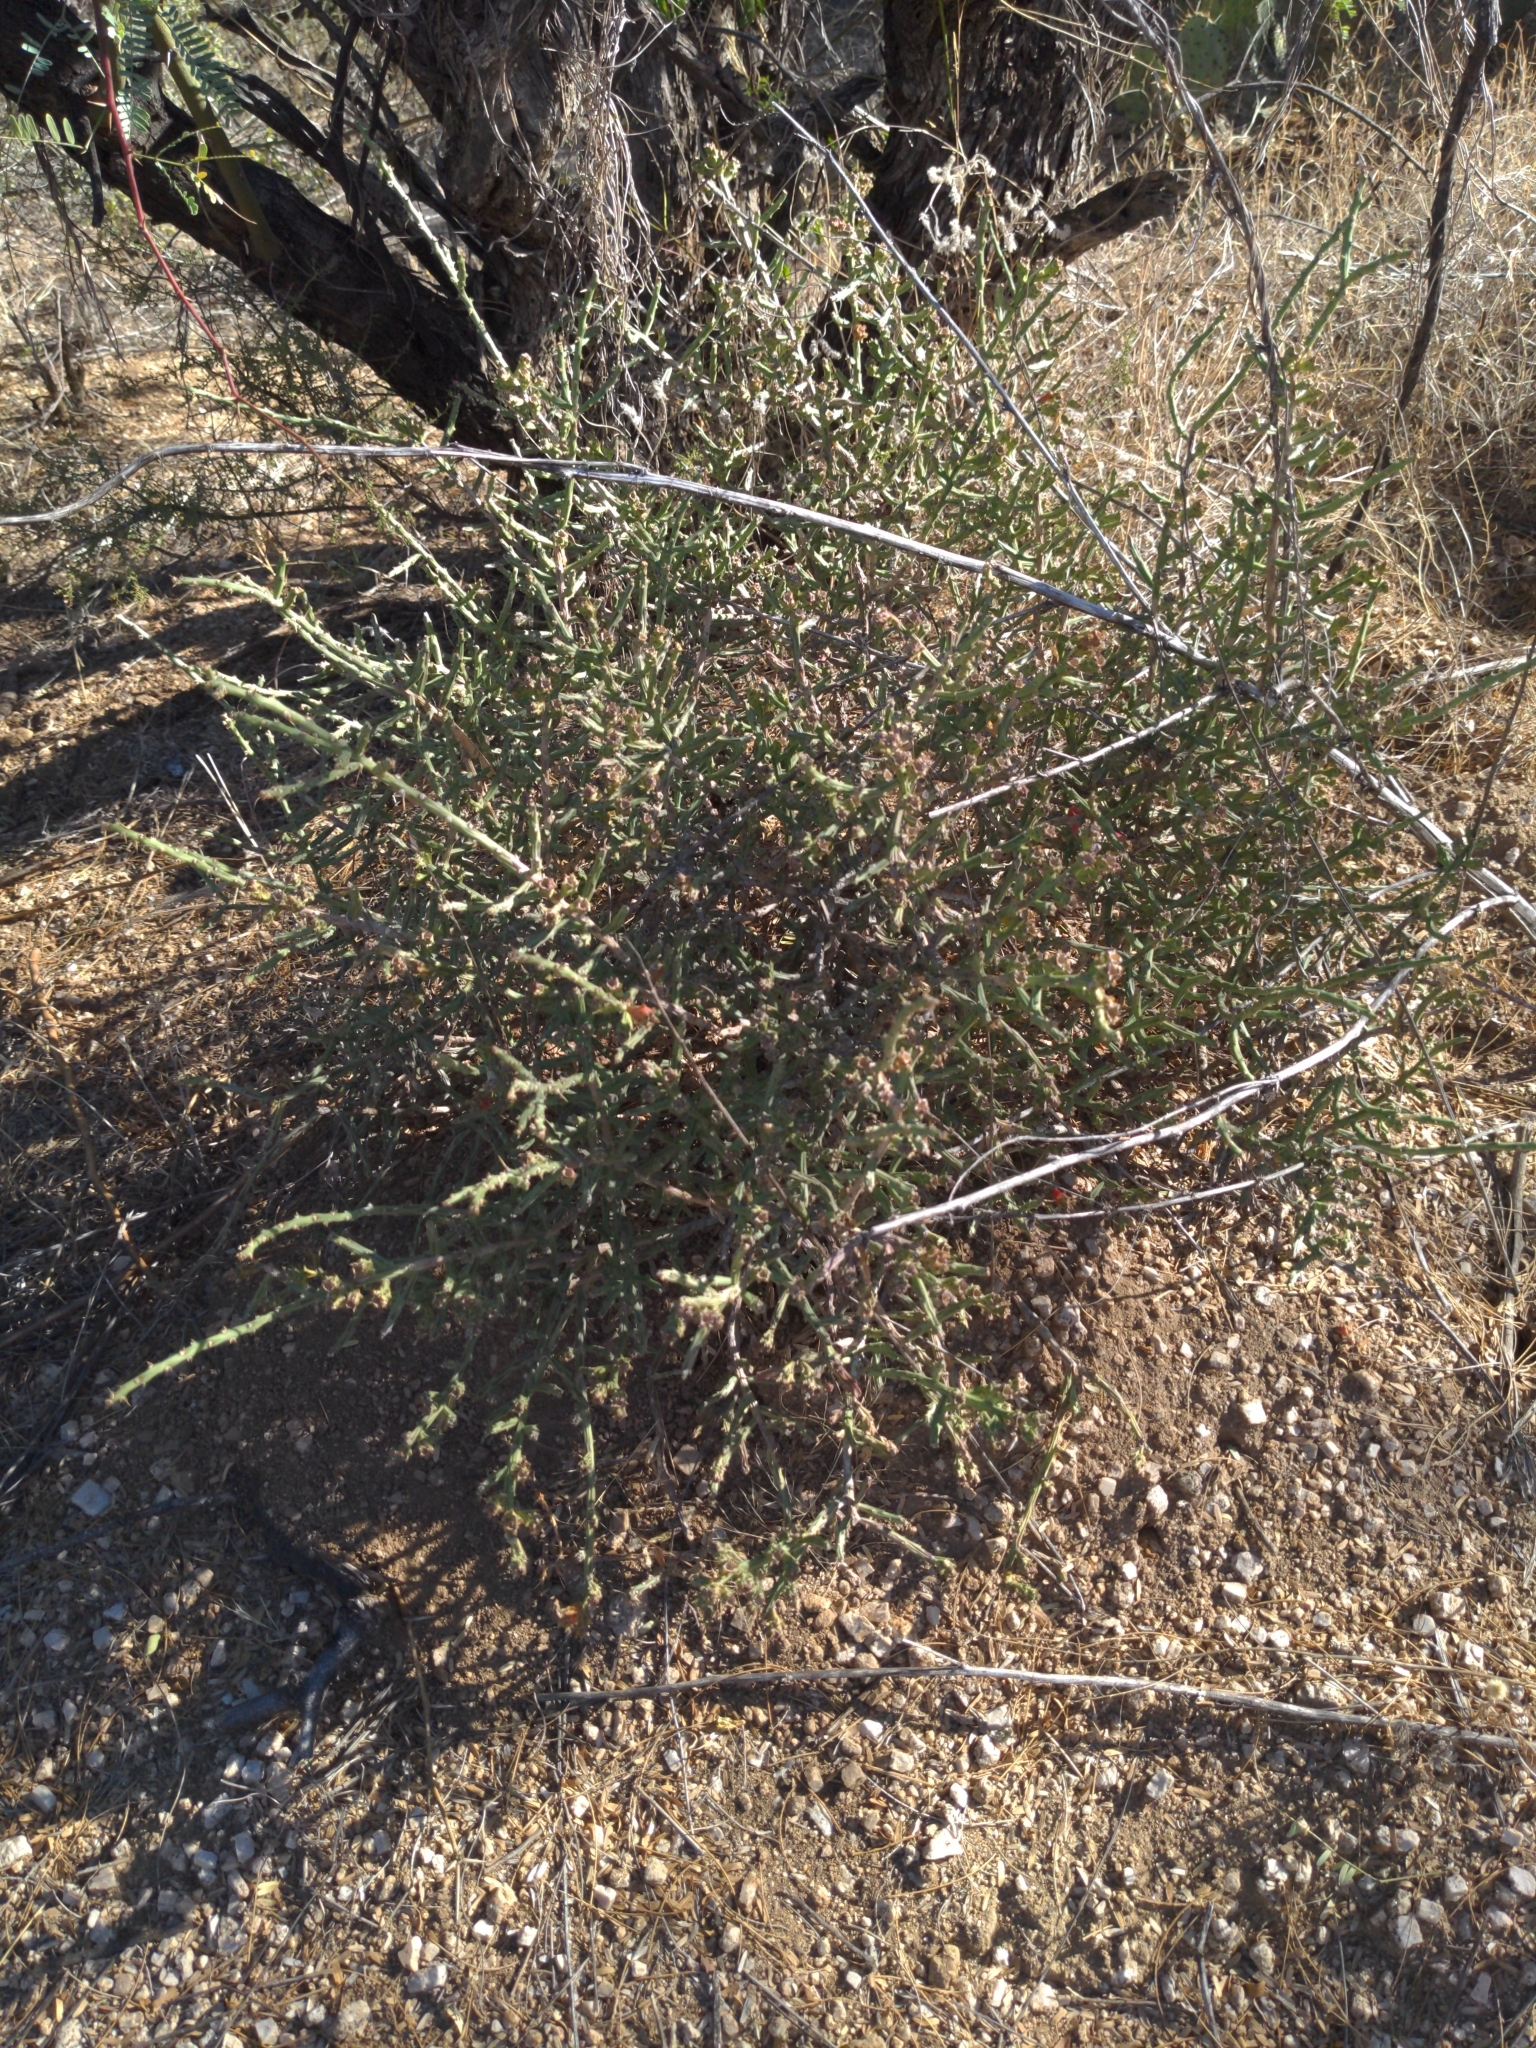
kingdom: Plantae
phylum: Tracheophyta
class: Magnoliopsida
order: Caryophyllales
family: Cactaceae
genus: Cylindropuntia
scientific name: Cylindropuntia leptocaulis
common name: Christmas cactus
